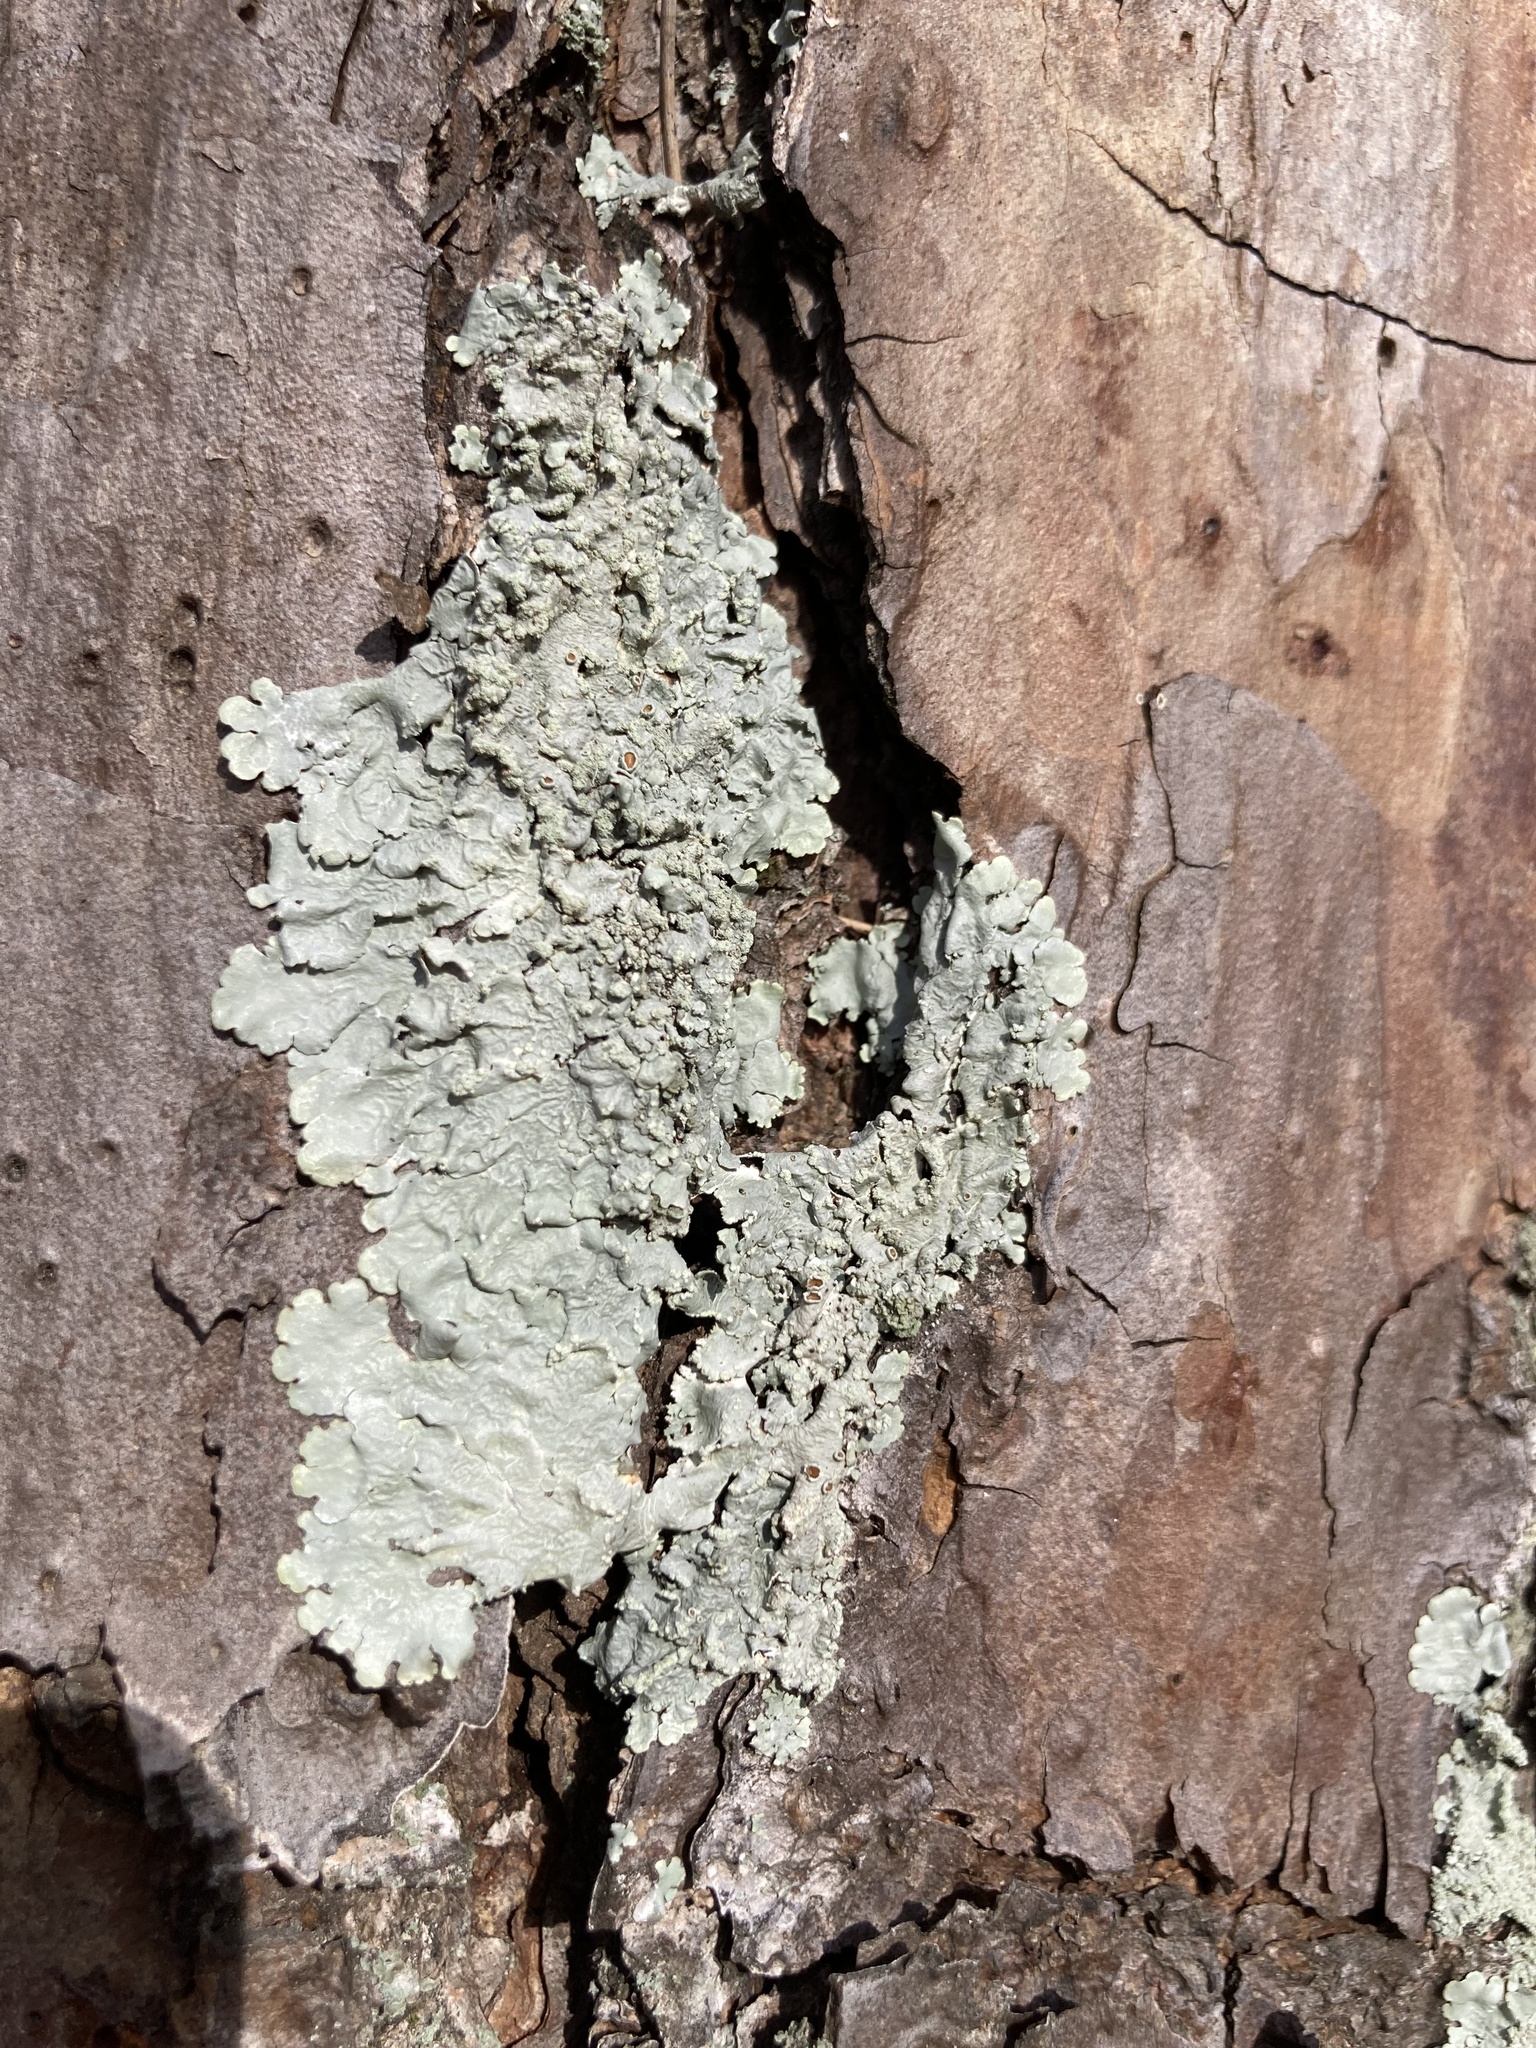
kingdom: Plantae
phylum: Tracheophyta
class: Pinopsida
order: Pinales
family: Pinaceae
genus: Pinus
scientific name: Pinus echinata
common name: Shortleaf pine
